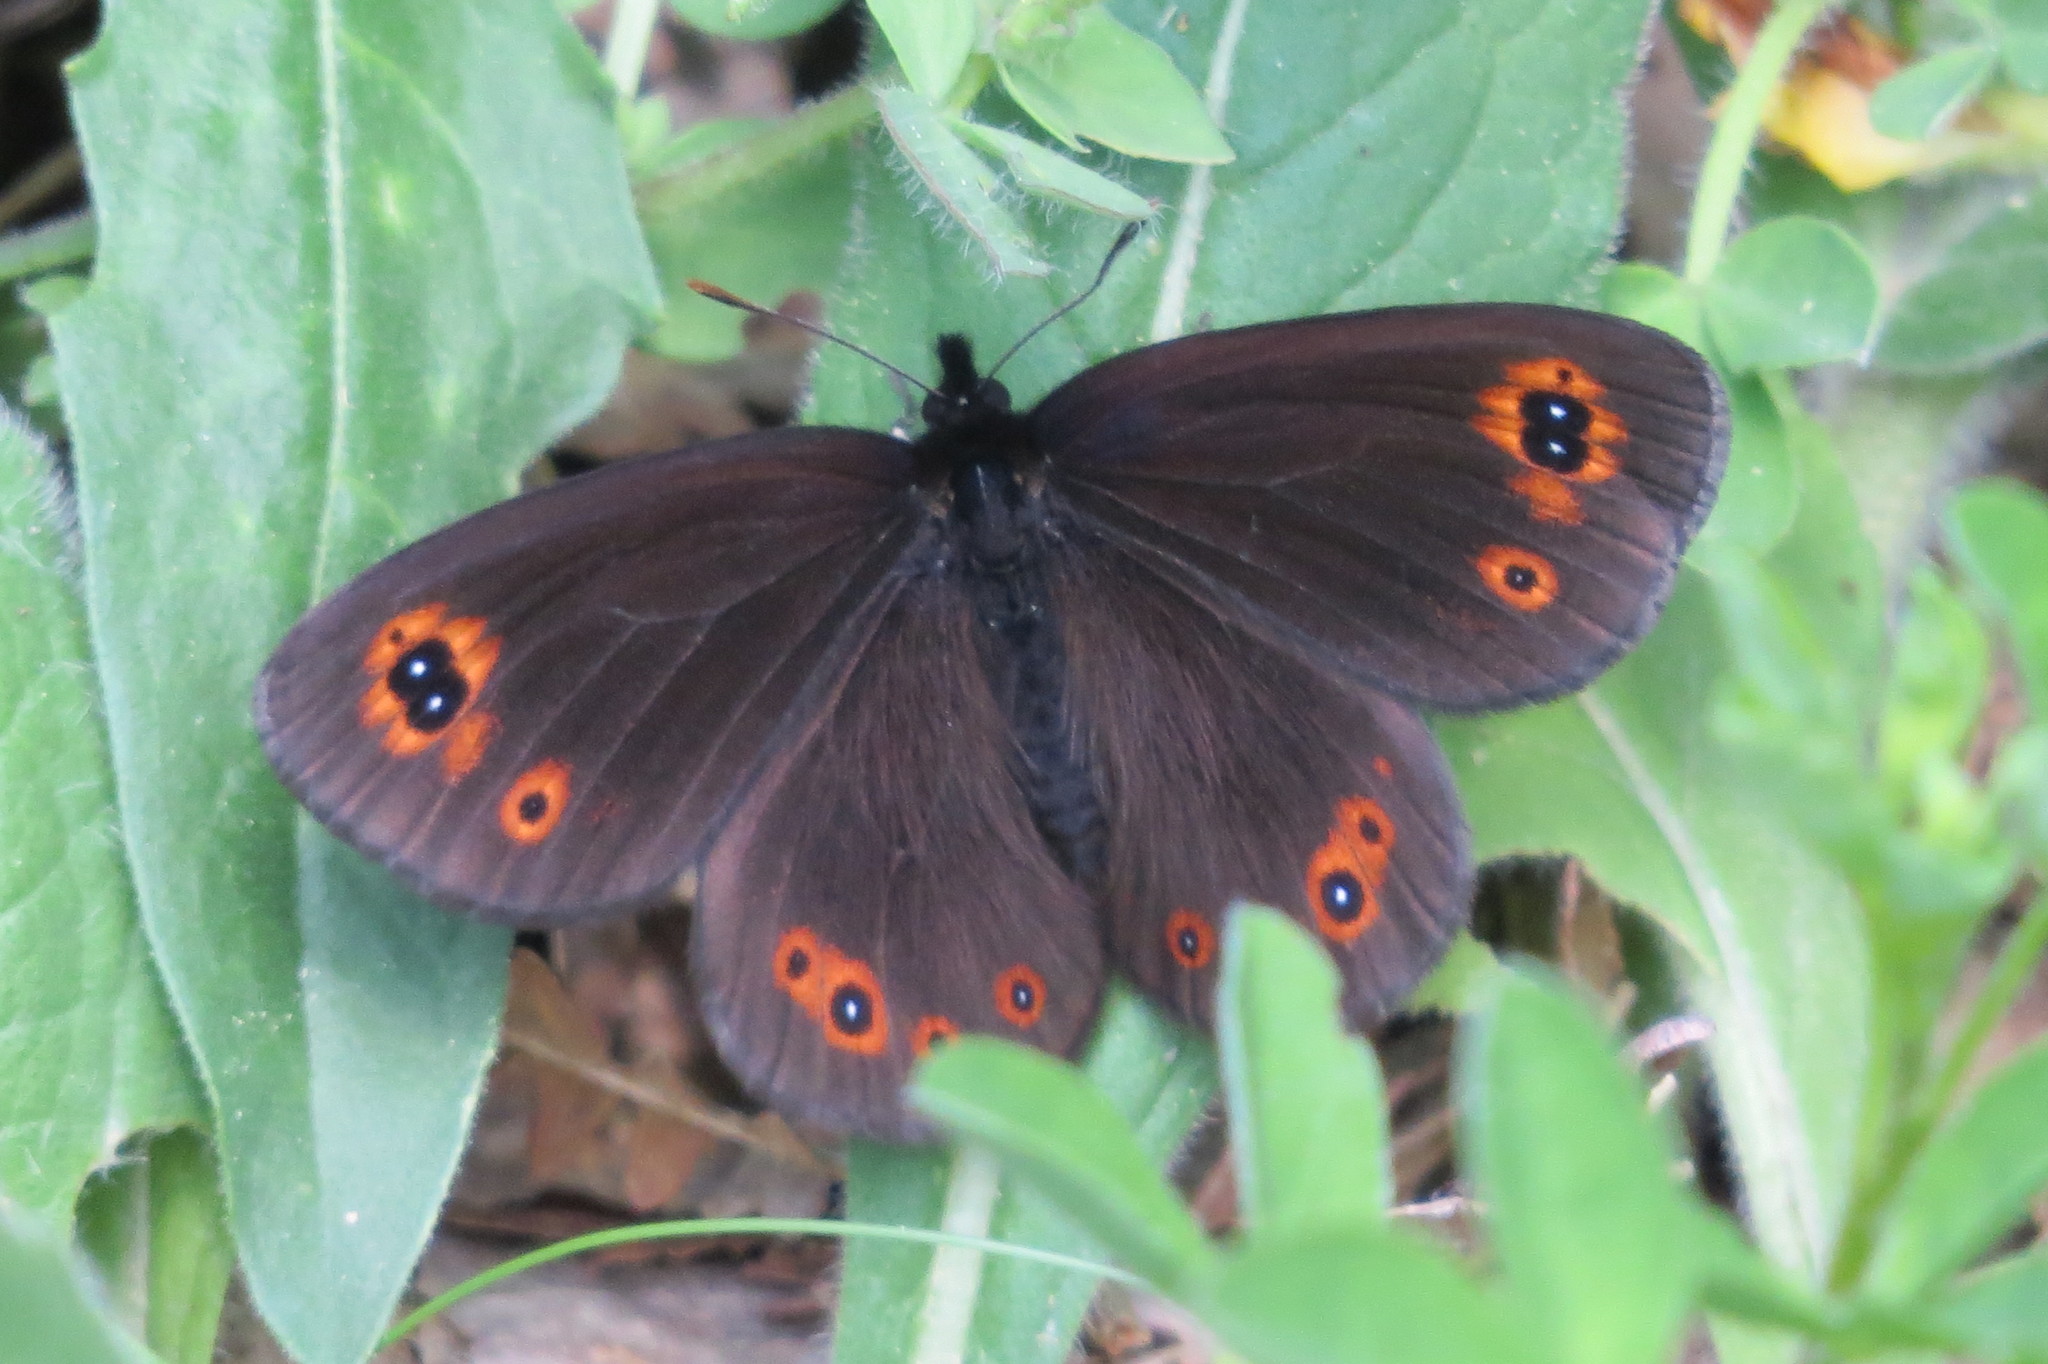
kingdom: Animalia
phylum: Arthropoda
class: Insecta
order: Lepidoptera
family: Nymphalidae
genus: Erebia
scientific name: Erebia medusa
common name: Woodland ringlet
